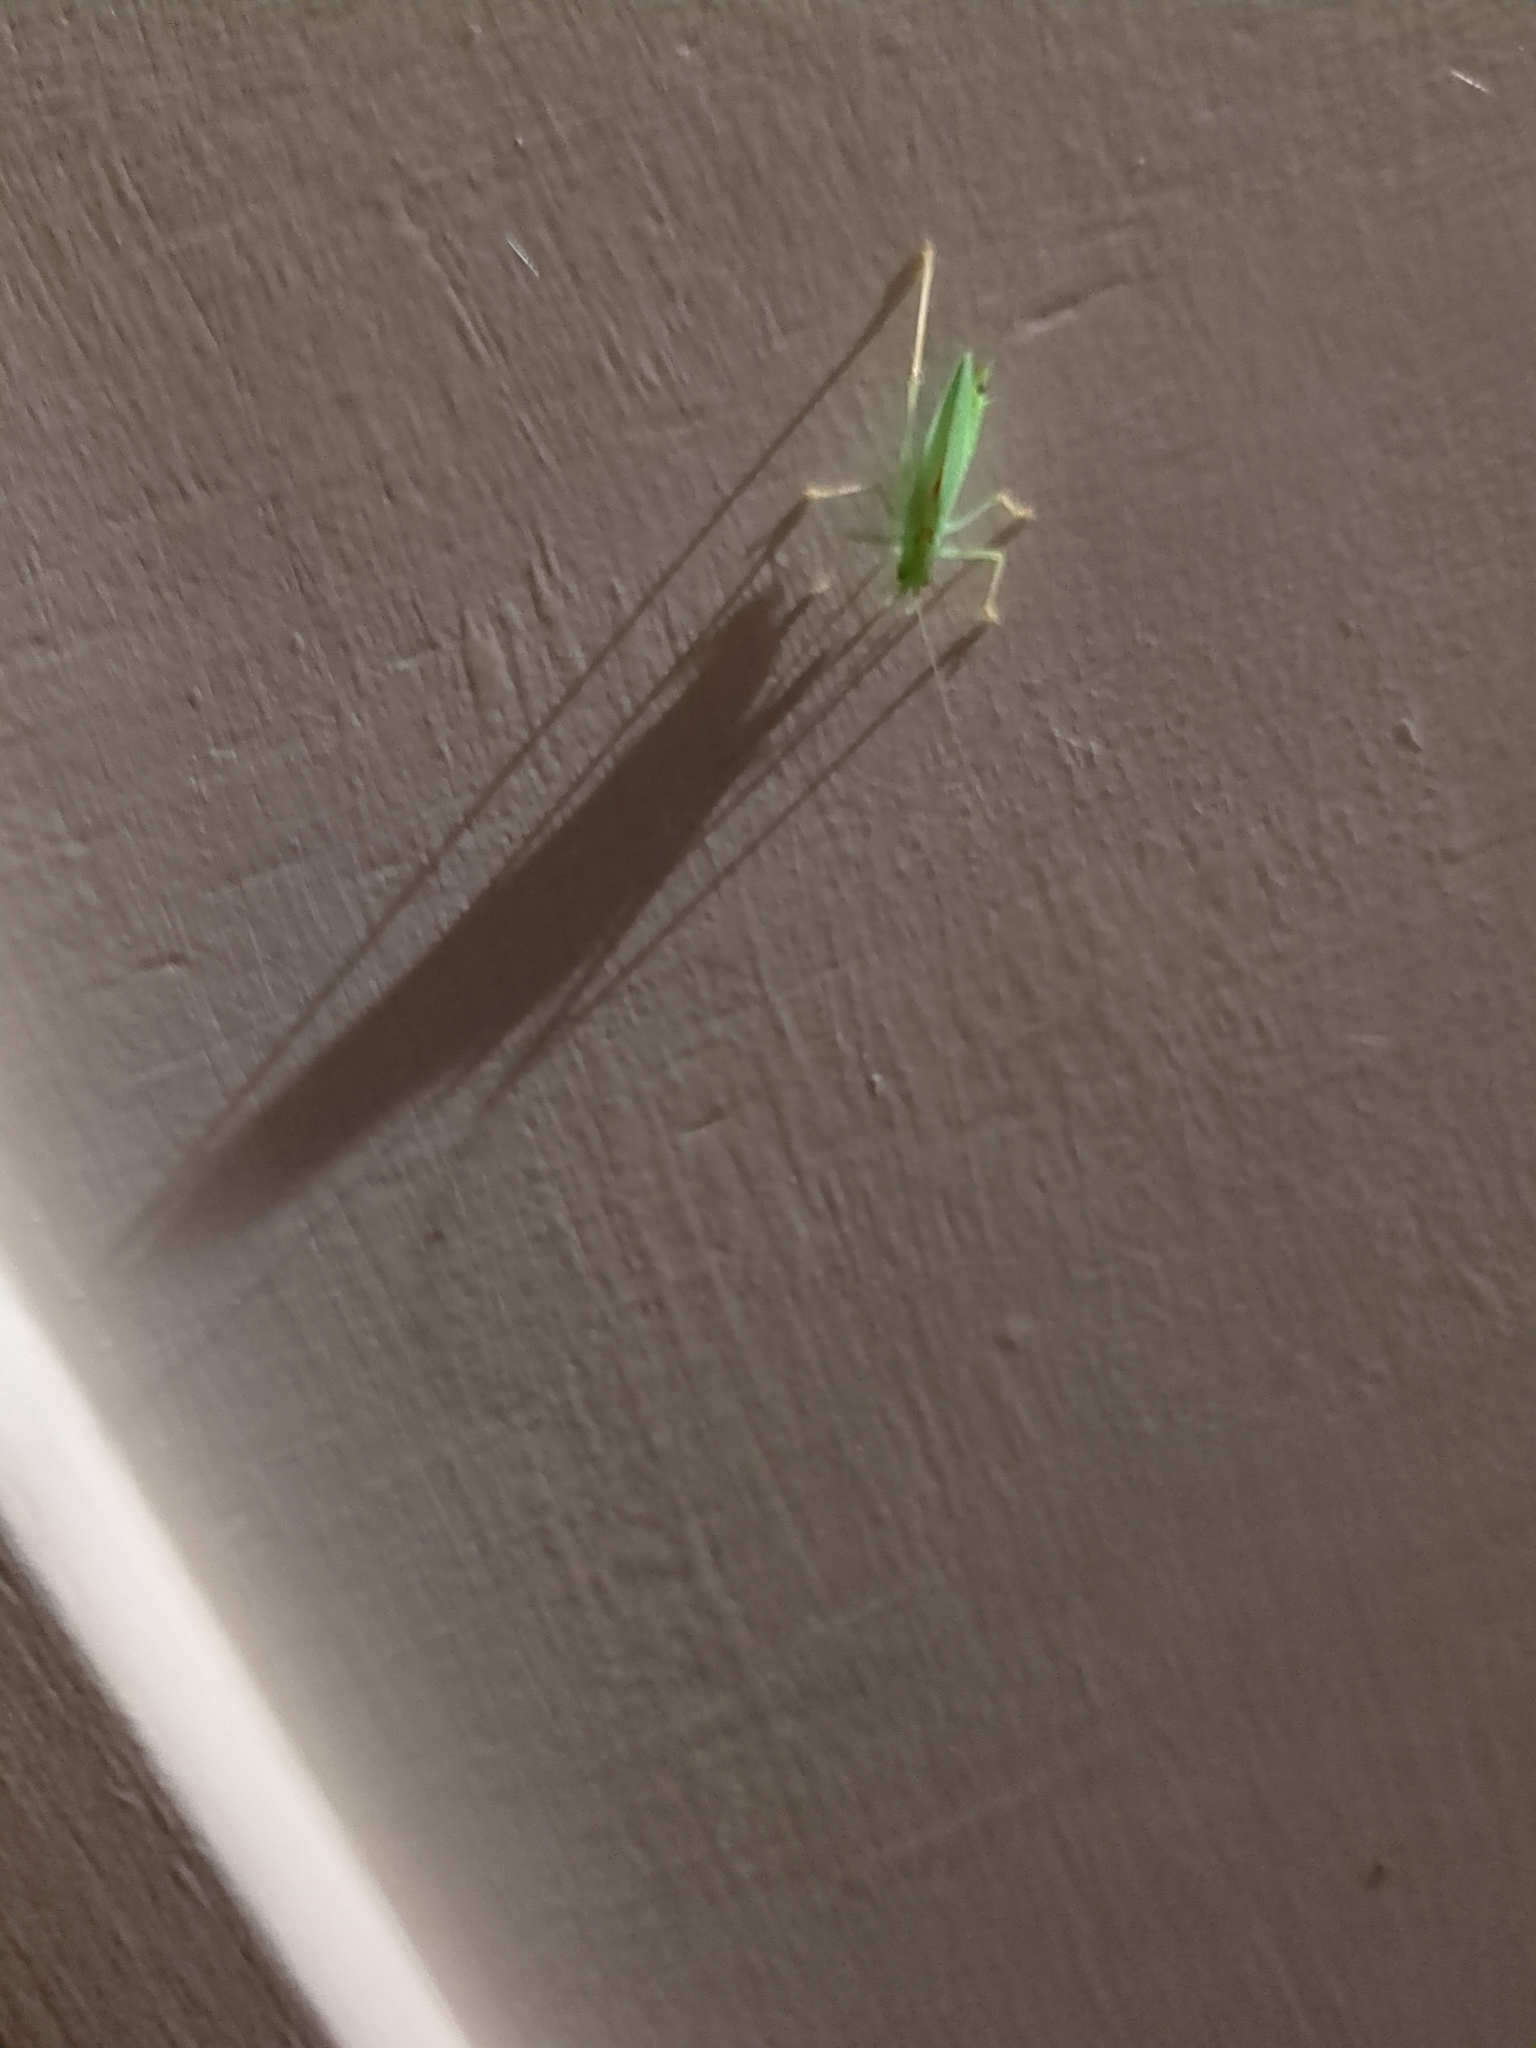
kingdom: Animalia
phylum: Arthropoda
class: Insecta
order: Orthoptera
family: Tettigoniidae
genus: Meconema
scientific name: Meconema thalassinum
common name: Oak bush-cricket
